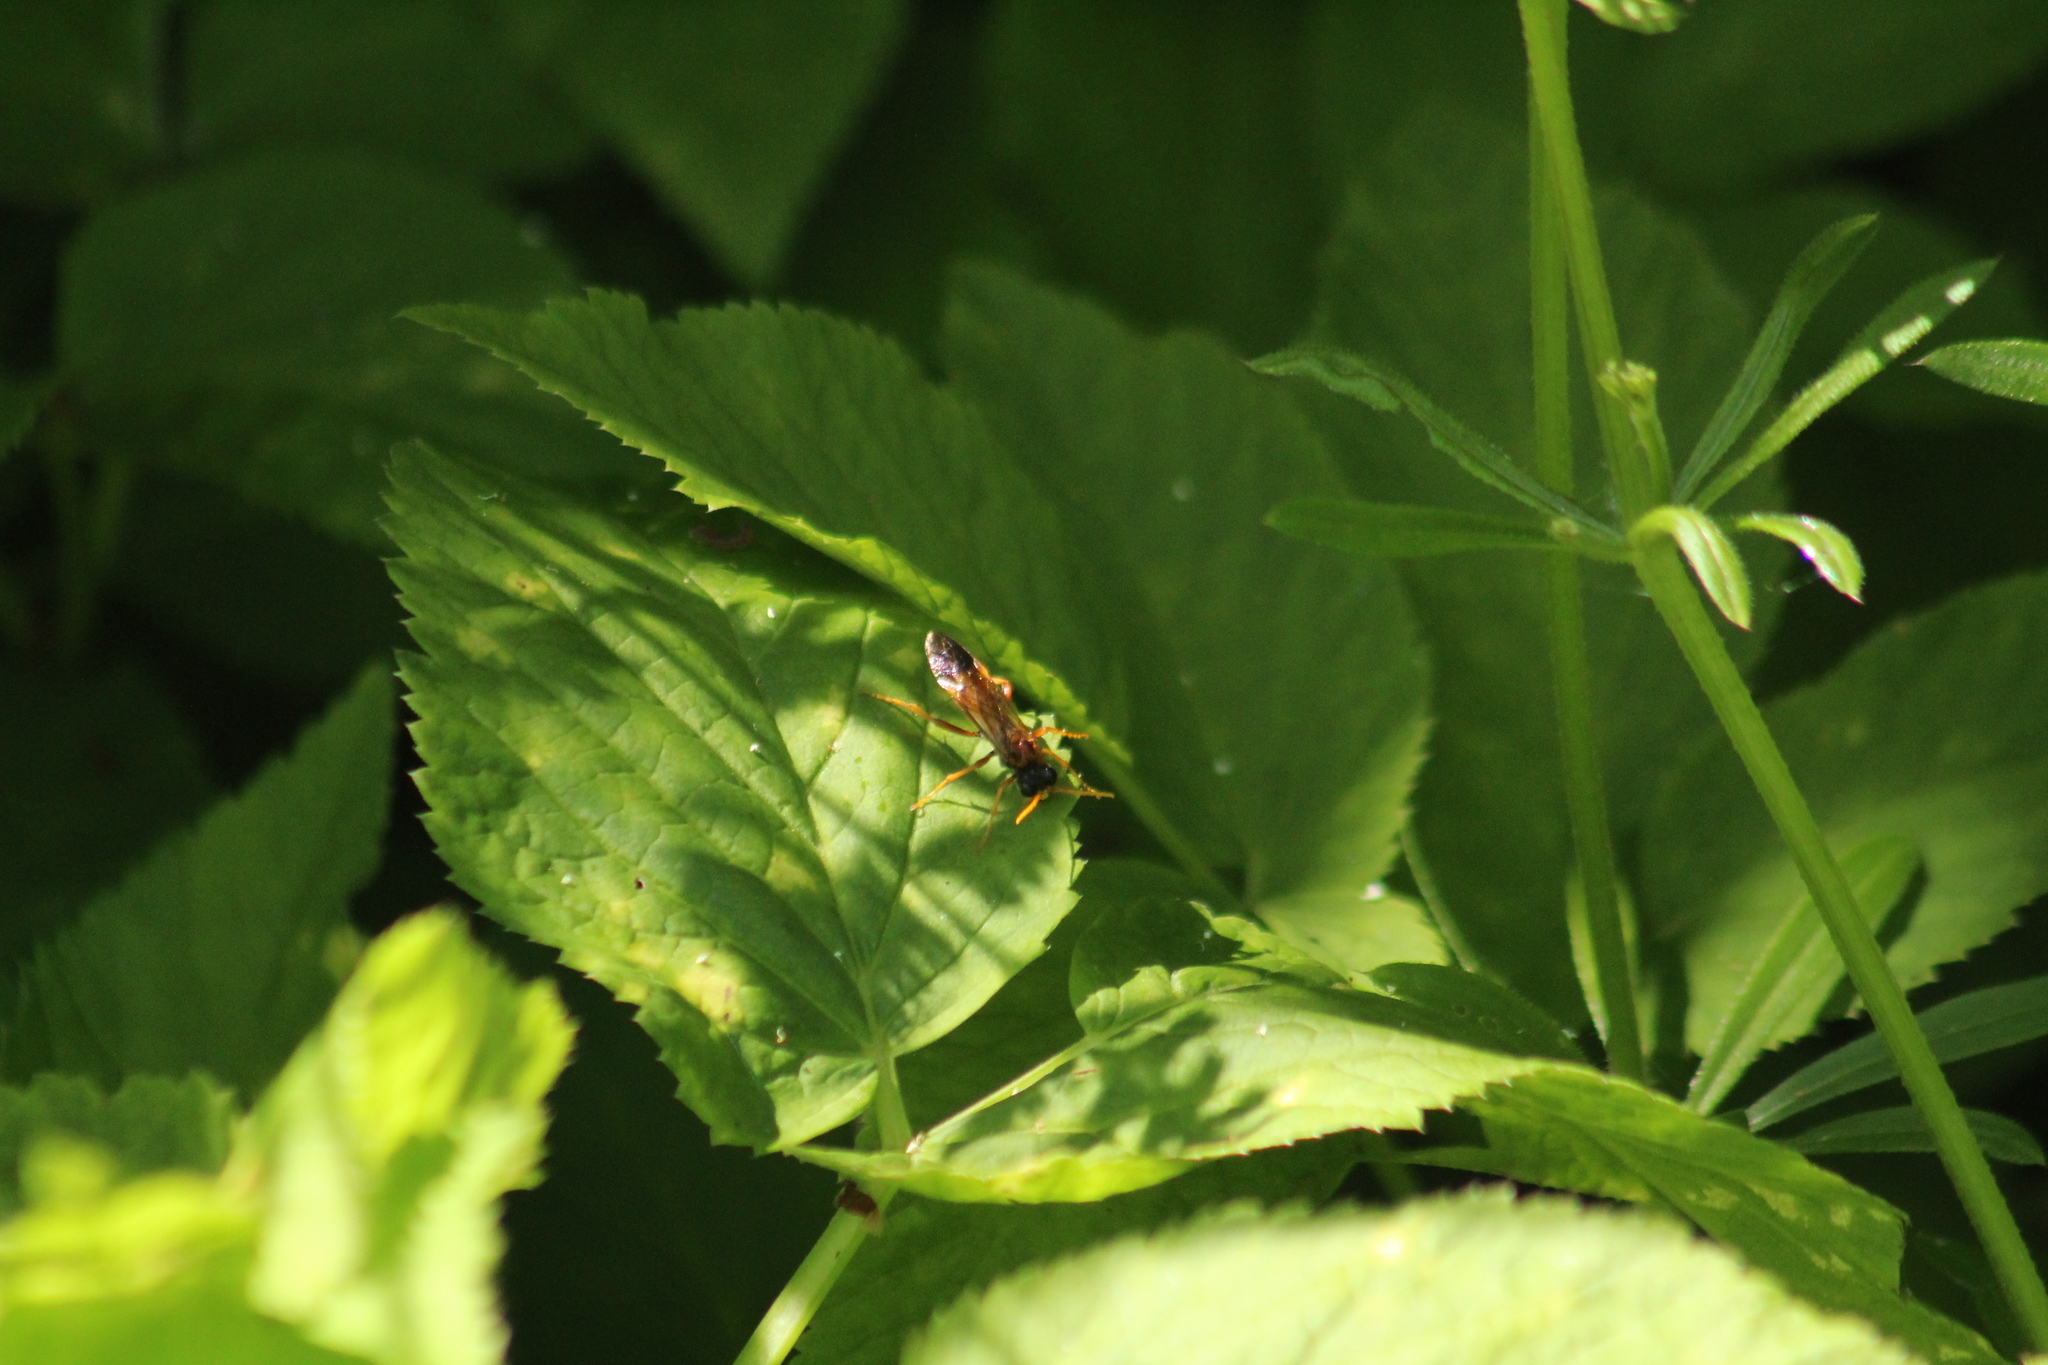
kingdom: Animalia
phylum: Arthropoda
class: Insecta
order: Hymenoptera
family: Tenthredinidae
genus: Tenthredo
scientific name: Tenthredo campestris
